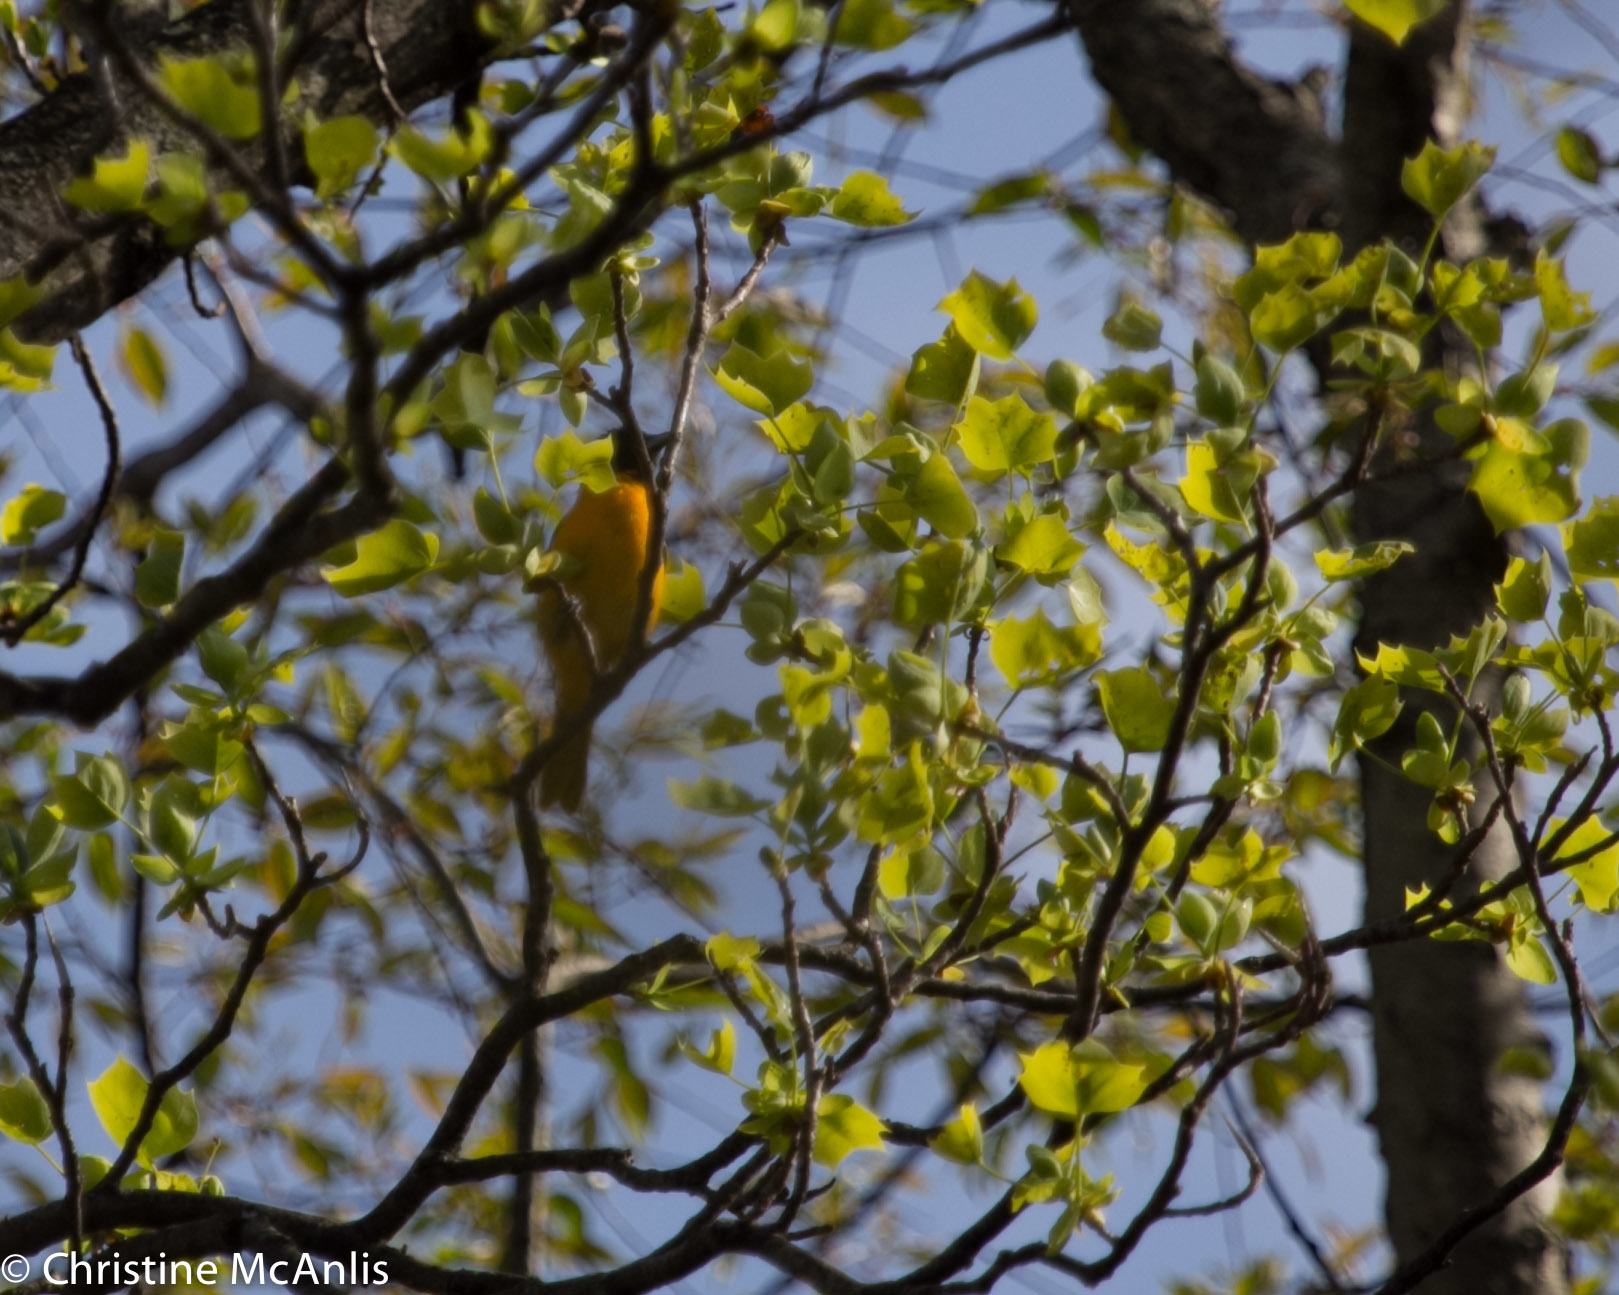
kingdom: Animalia
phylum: Chordata
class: Aves
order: Passeriformes
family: Icteridae
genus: Icterus
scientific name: Icterus galbula
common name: Baltimore oriole
